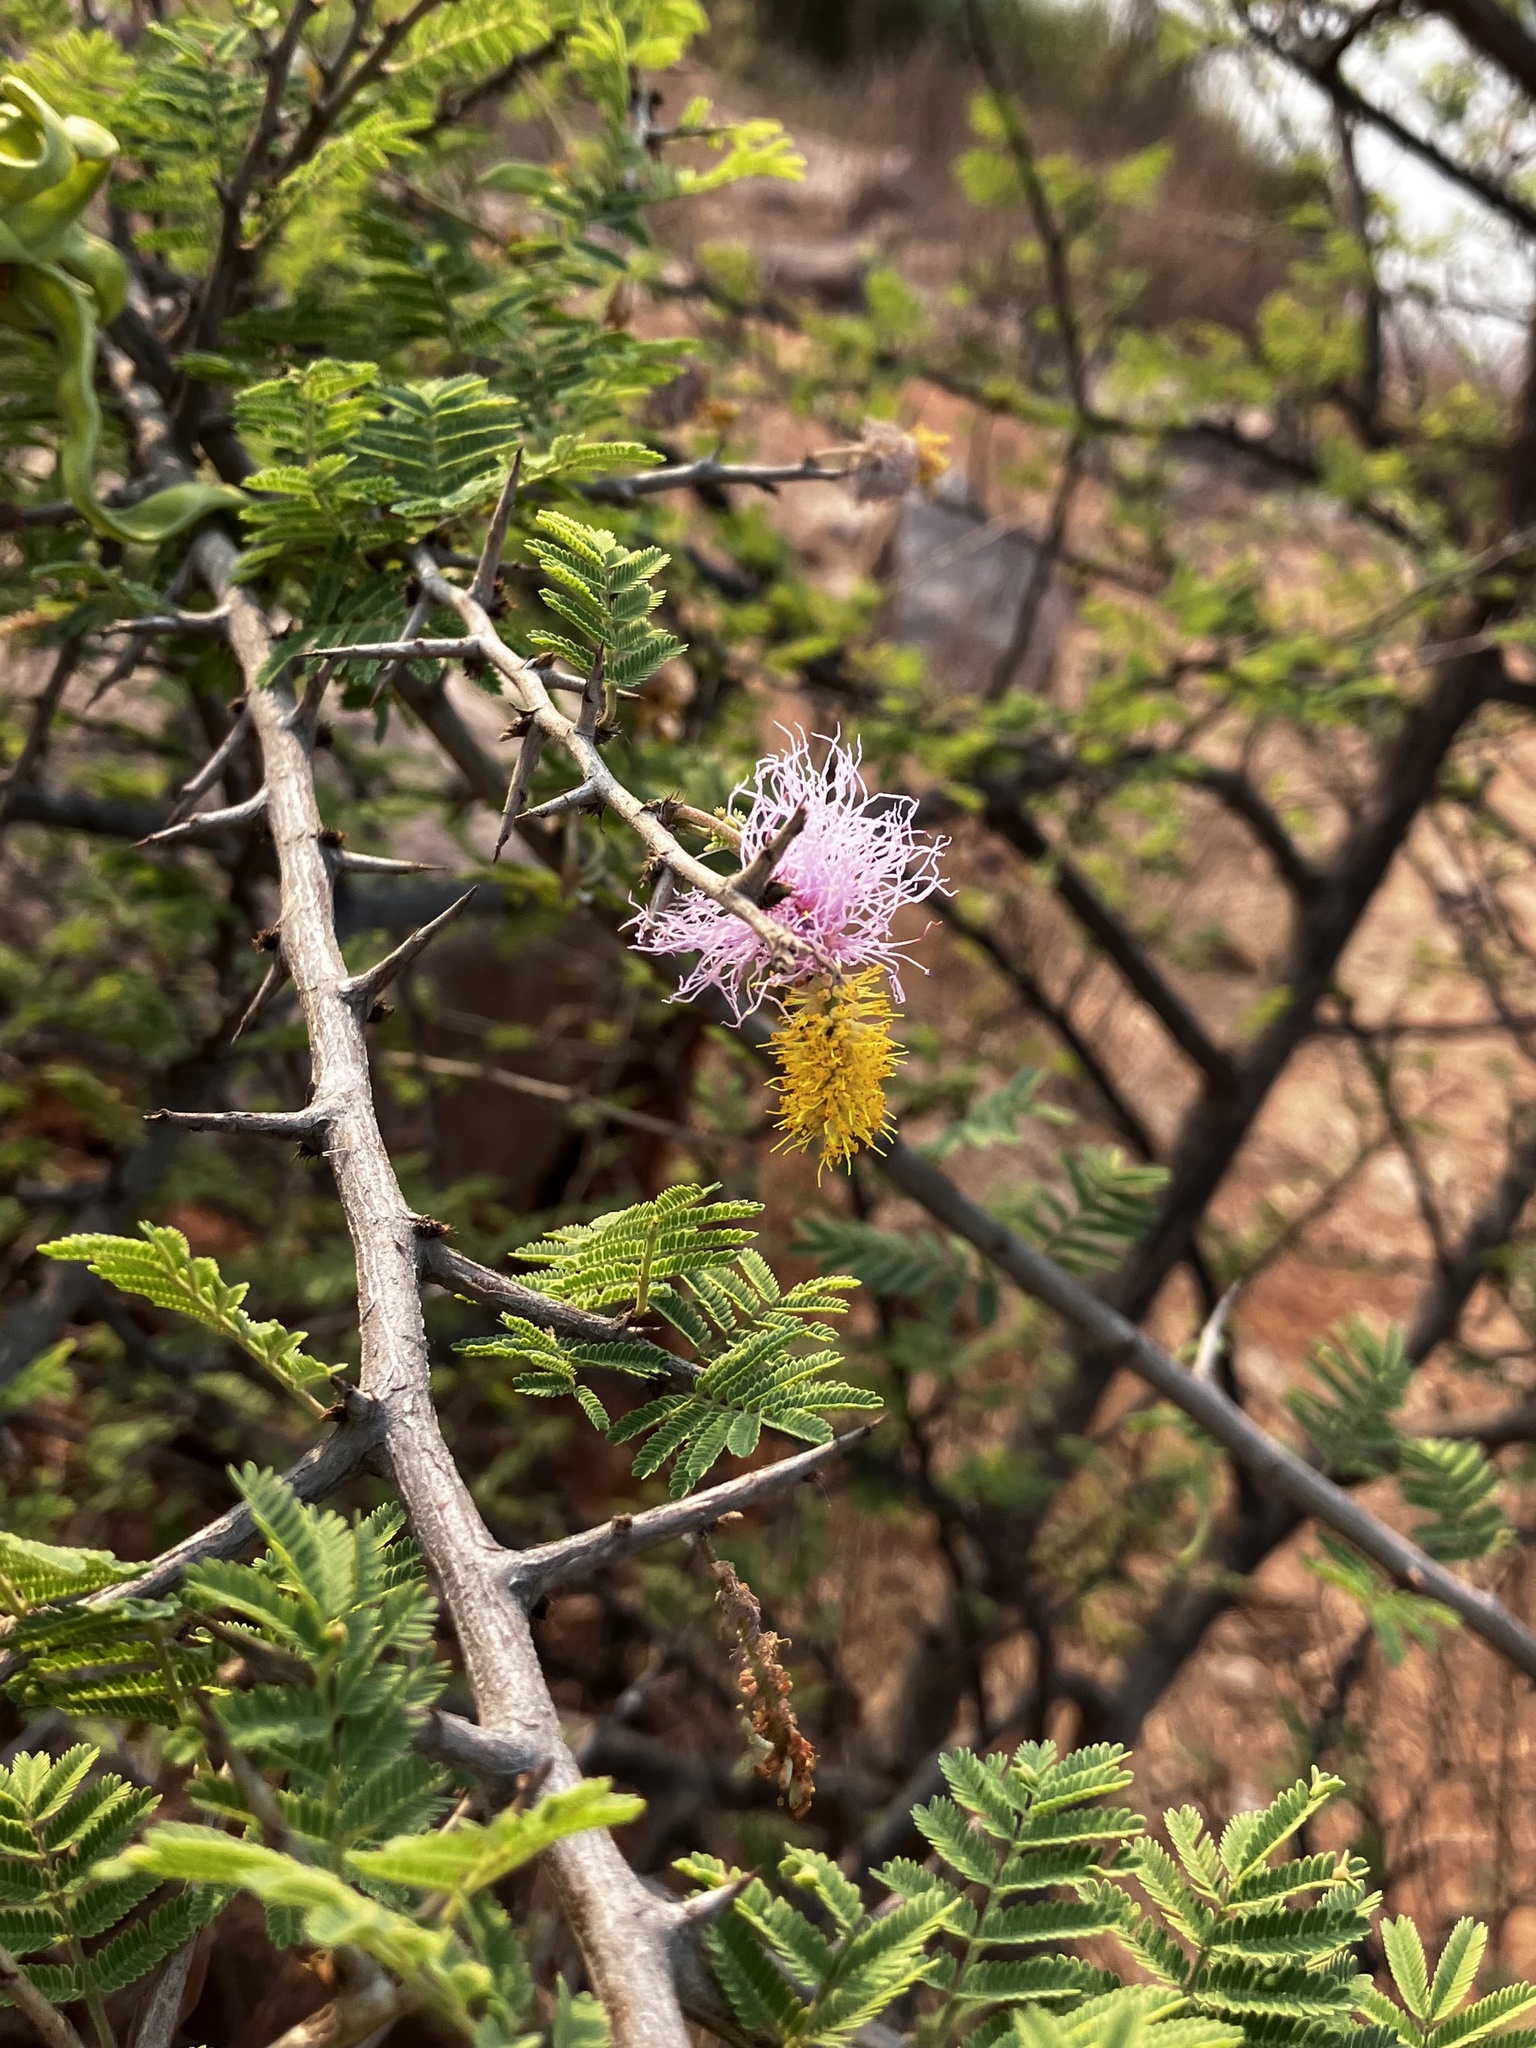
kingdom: Plantae
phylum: Tracheophyta
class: Magnoliopsida
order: Fabales
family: Fabaceae
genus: Dichrostachys
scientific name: Dichrostachys cinerea
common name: Sicklebush
